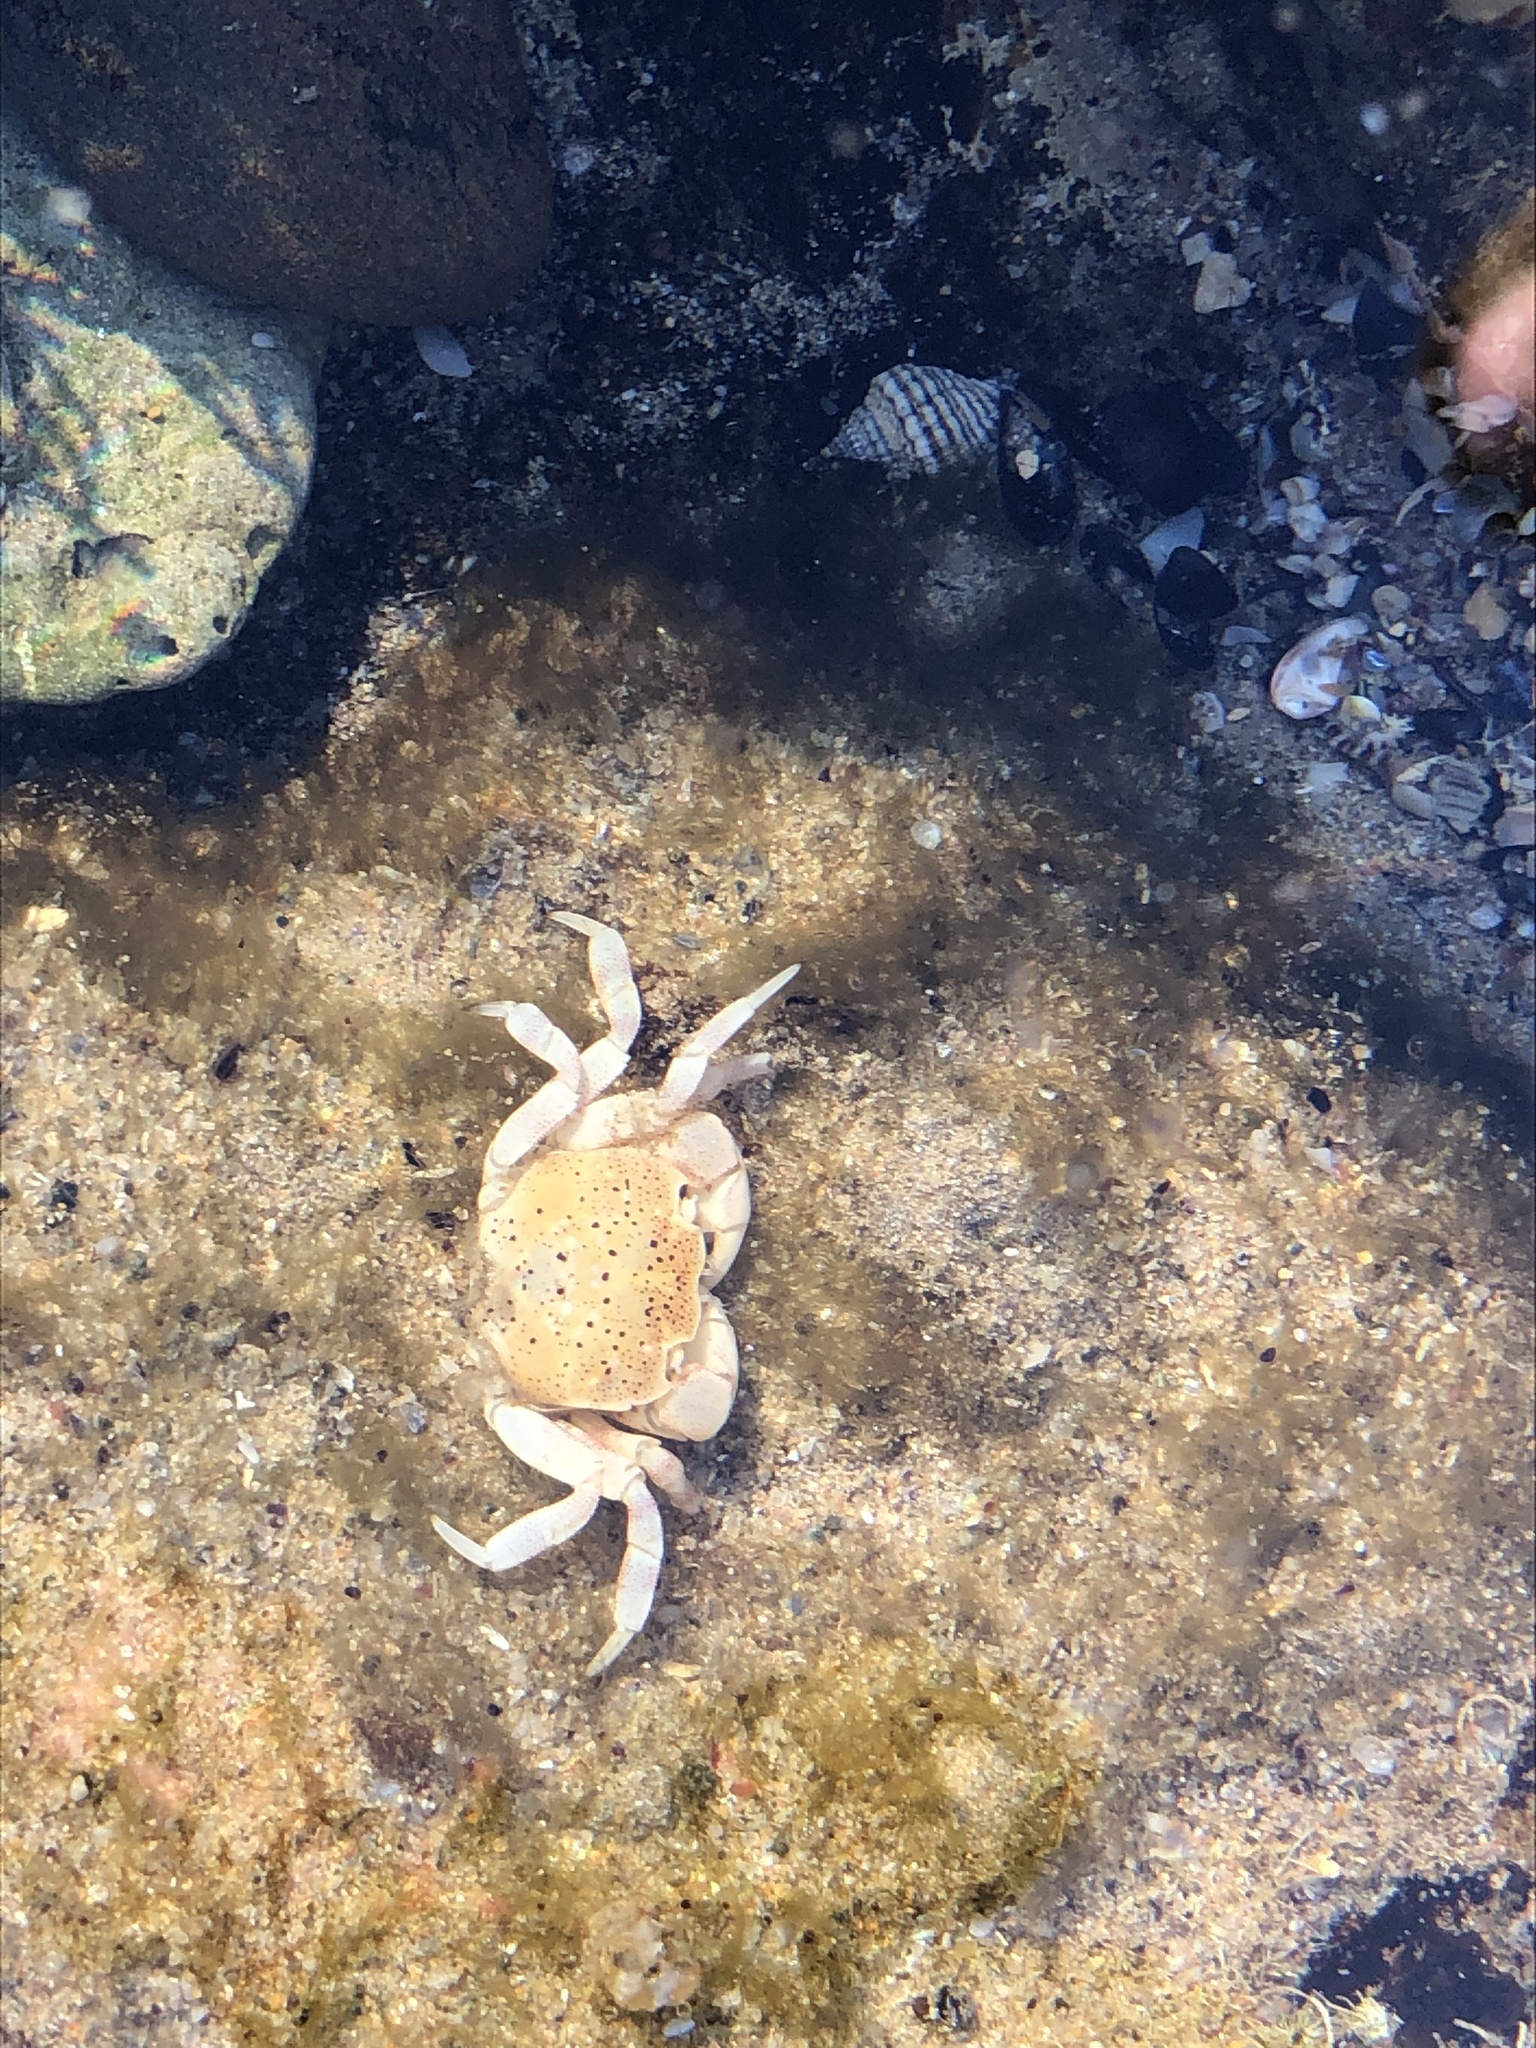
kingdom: Animalia
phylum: Arthropoda
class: Malacostraca
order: Decapoda
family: Varunidae
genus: Paragrapsus
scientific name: Paragrapsus quadridentatus
